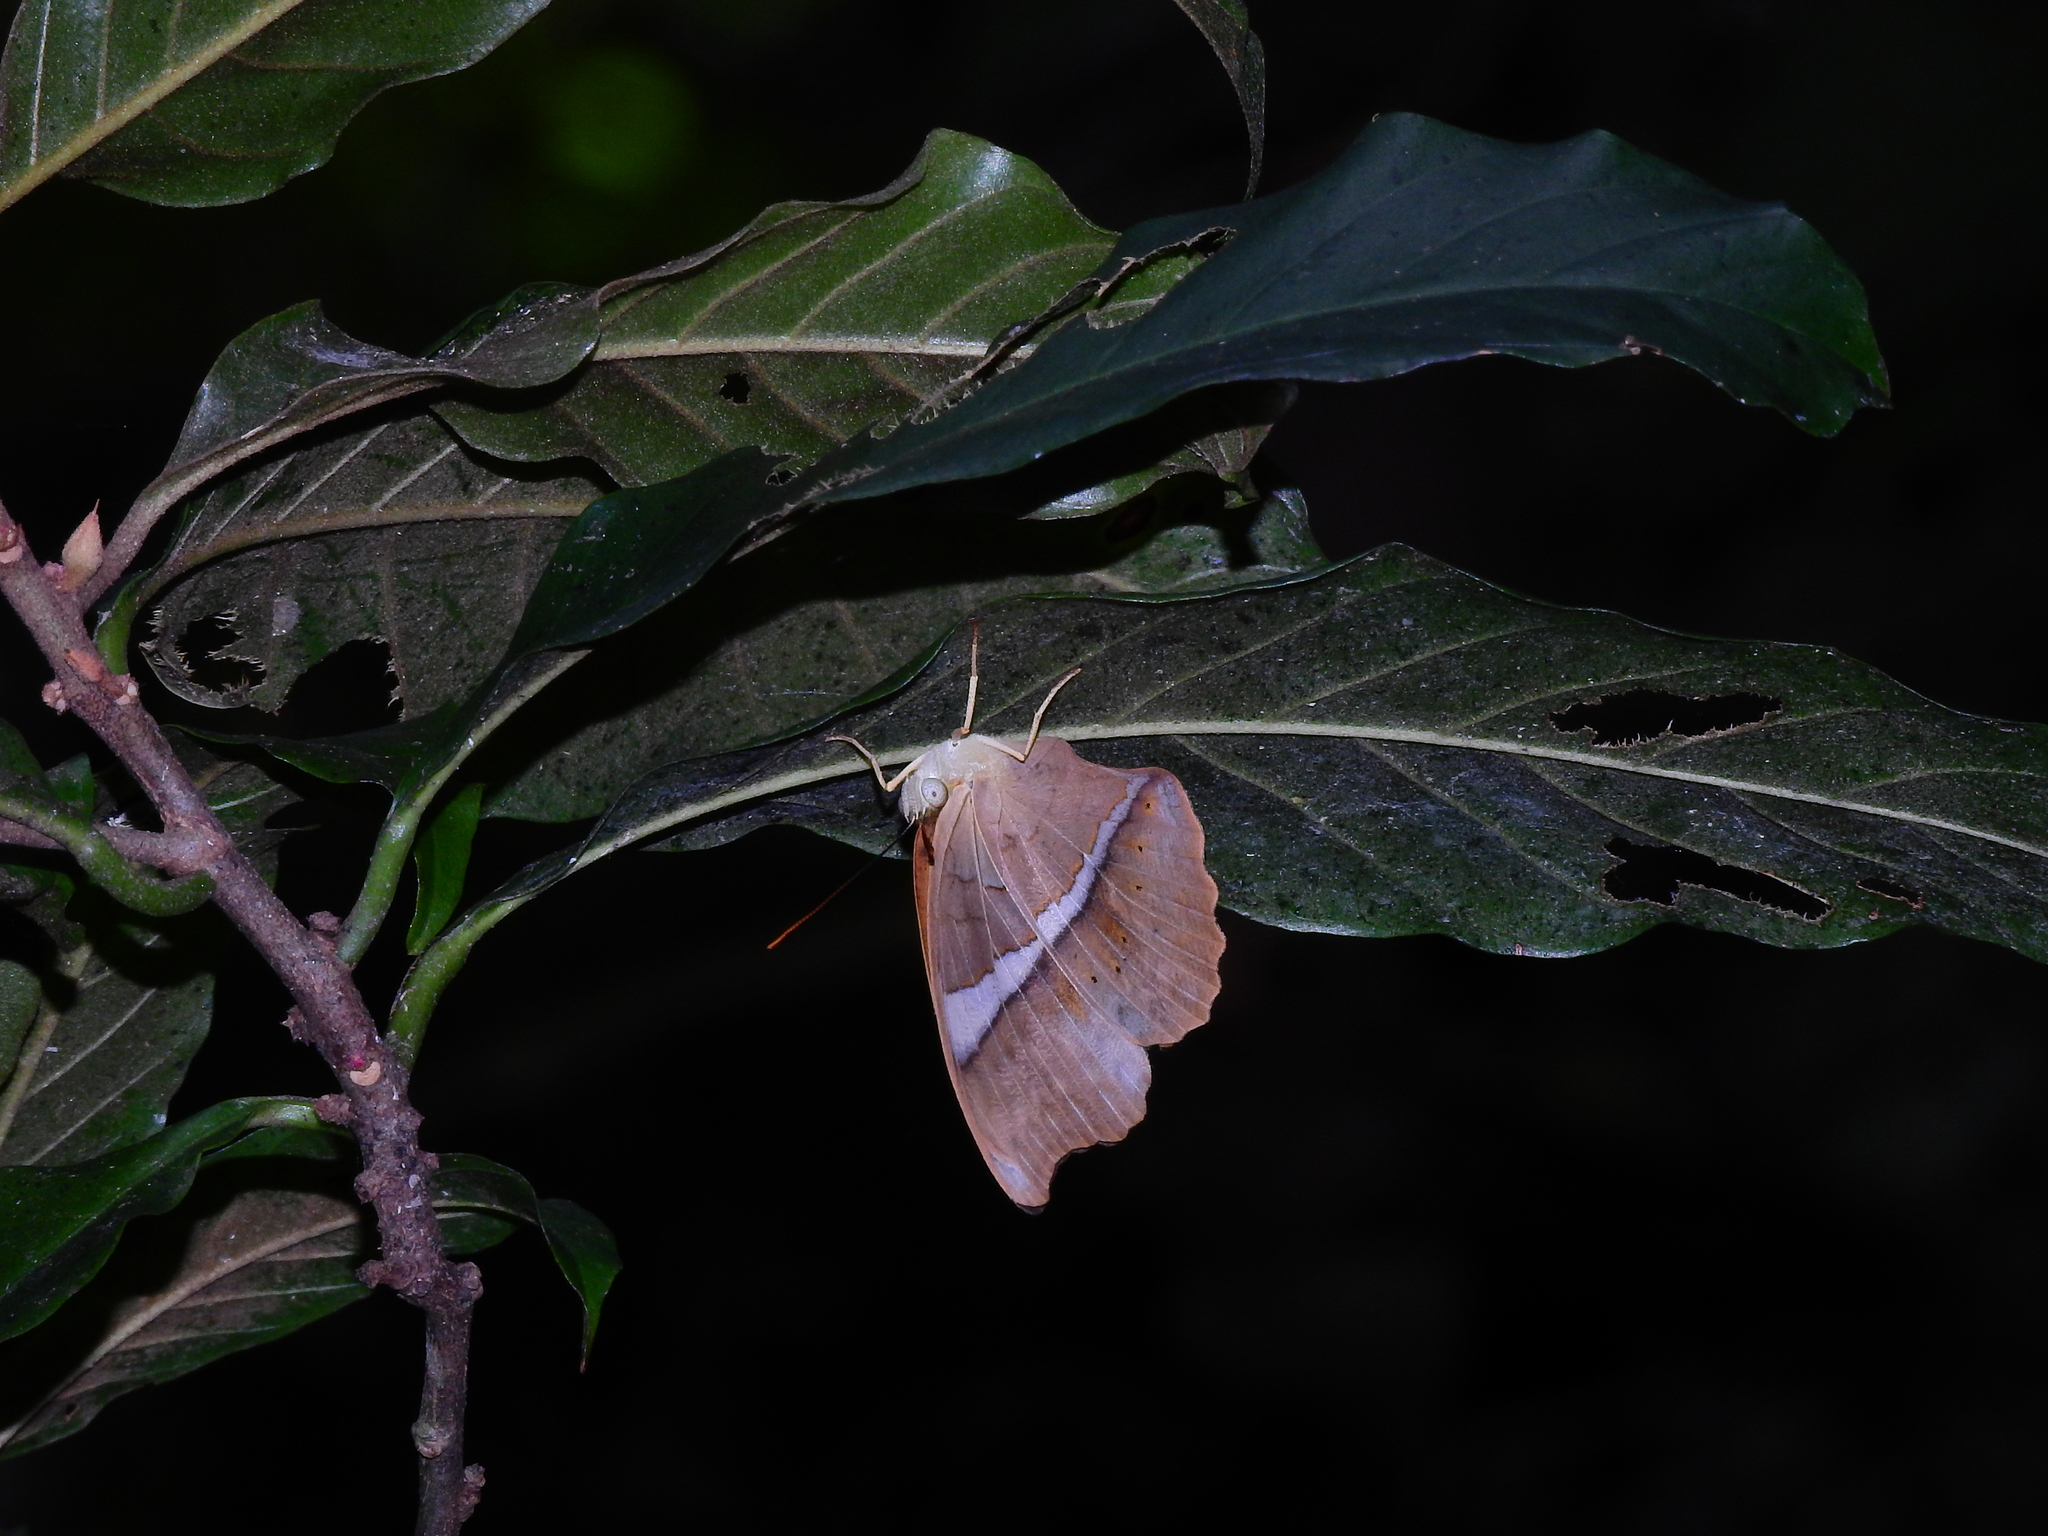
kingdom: Animalia
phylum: Arthropoda
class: Insecta
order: Lepidoptera
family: Nymphalidae
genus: Cirrochroa
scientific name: Cirrochroa thais
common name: Tamil yeoman
